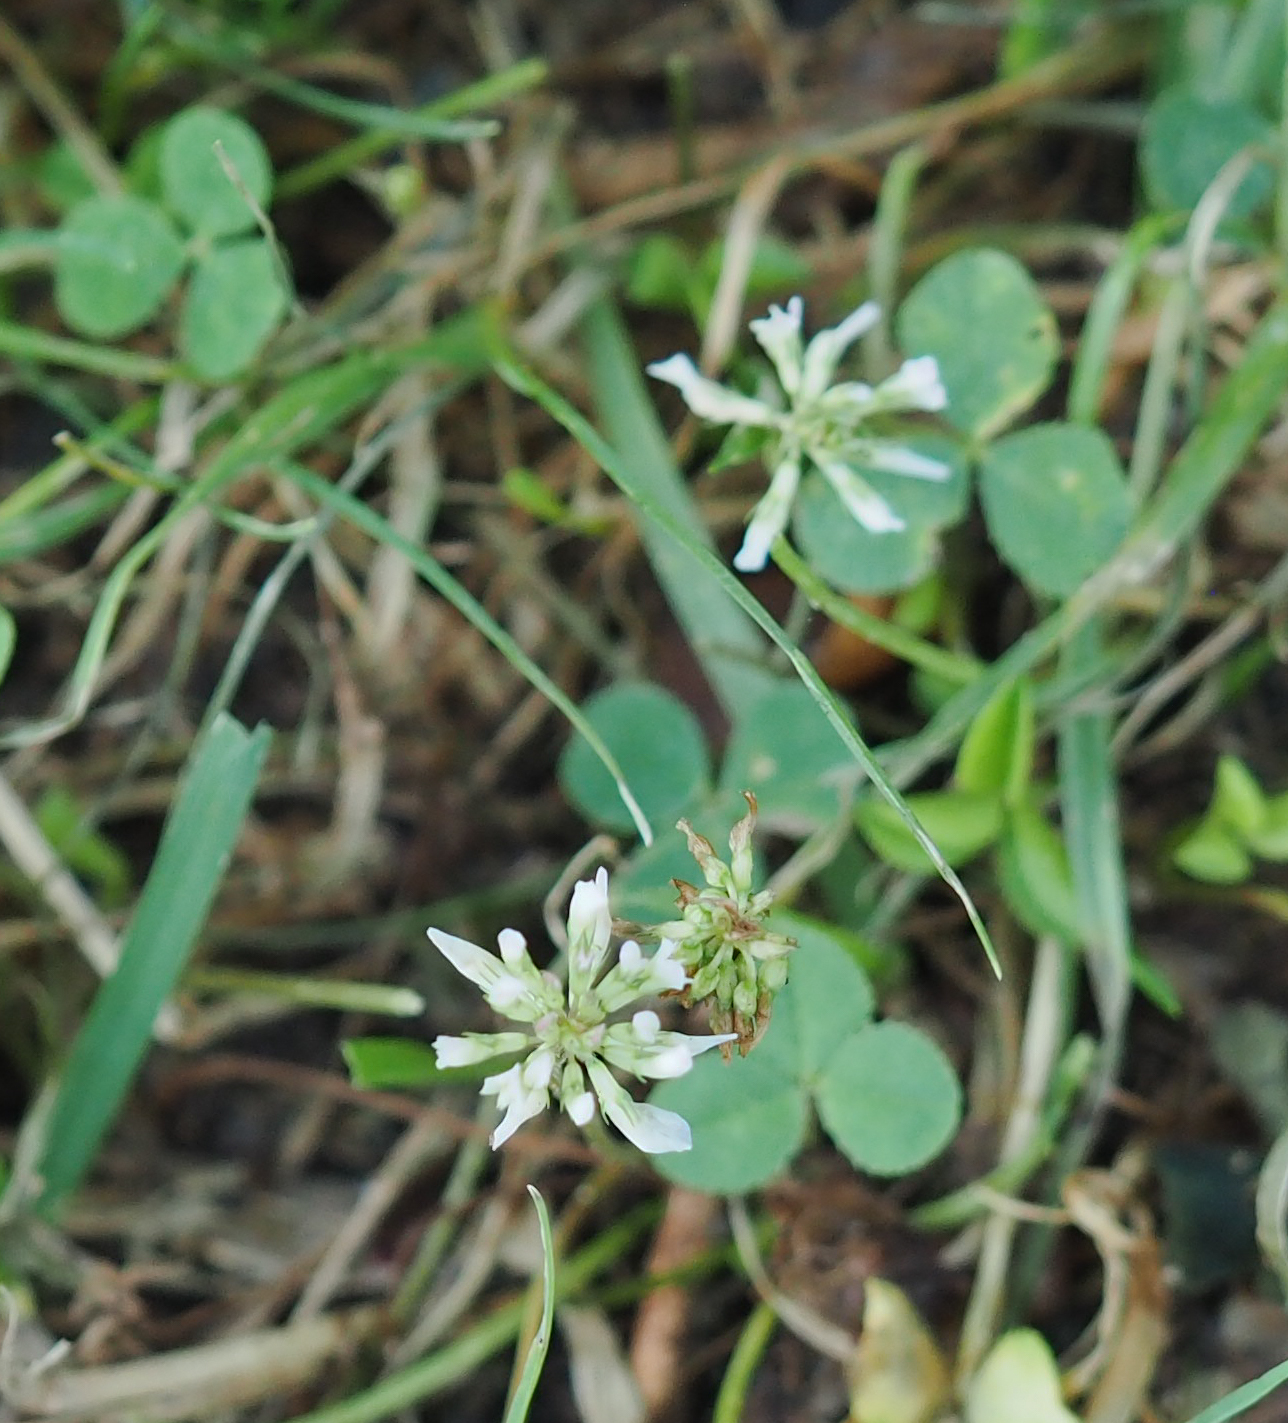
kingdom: Plantae
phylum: Tracheophyta
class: Magnoliopsida
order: Fabales
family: Fabaceae
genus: Trifolium
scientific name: Trifolium repens
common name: White clover
